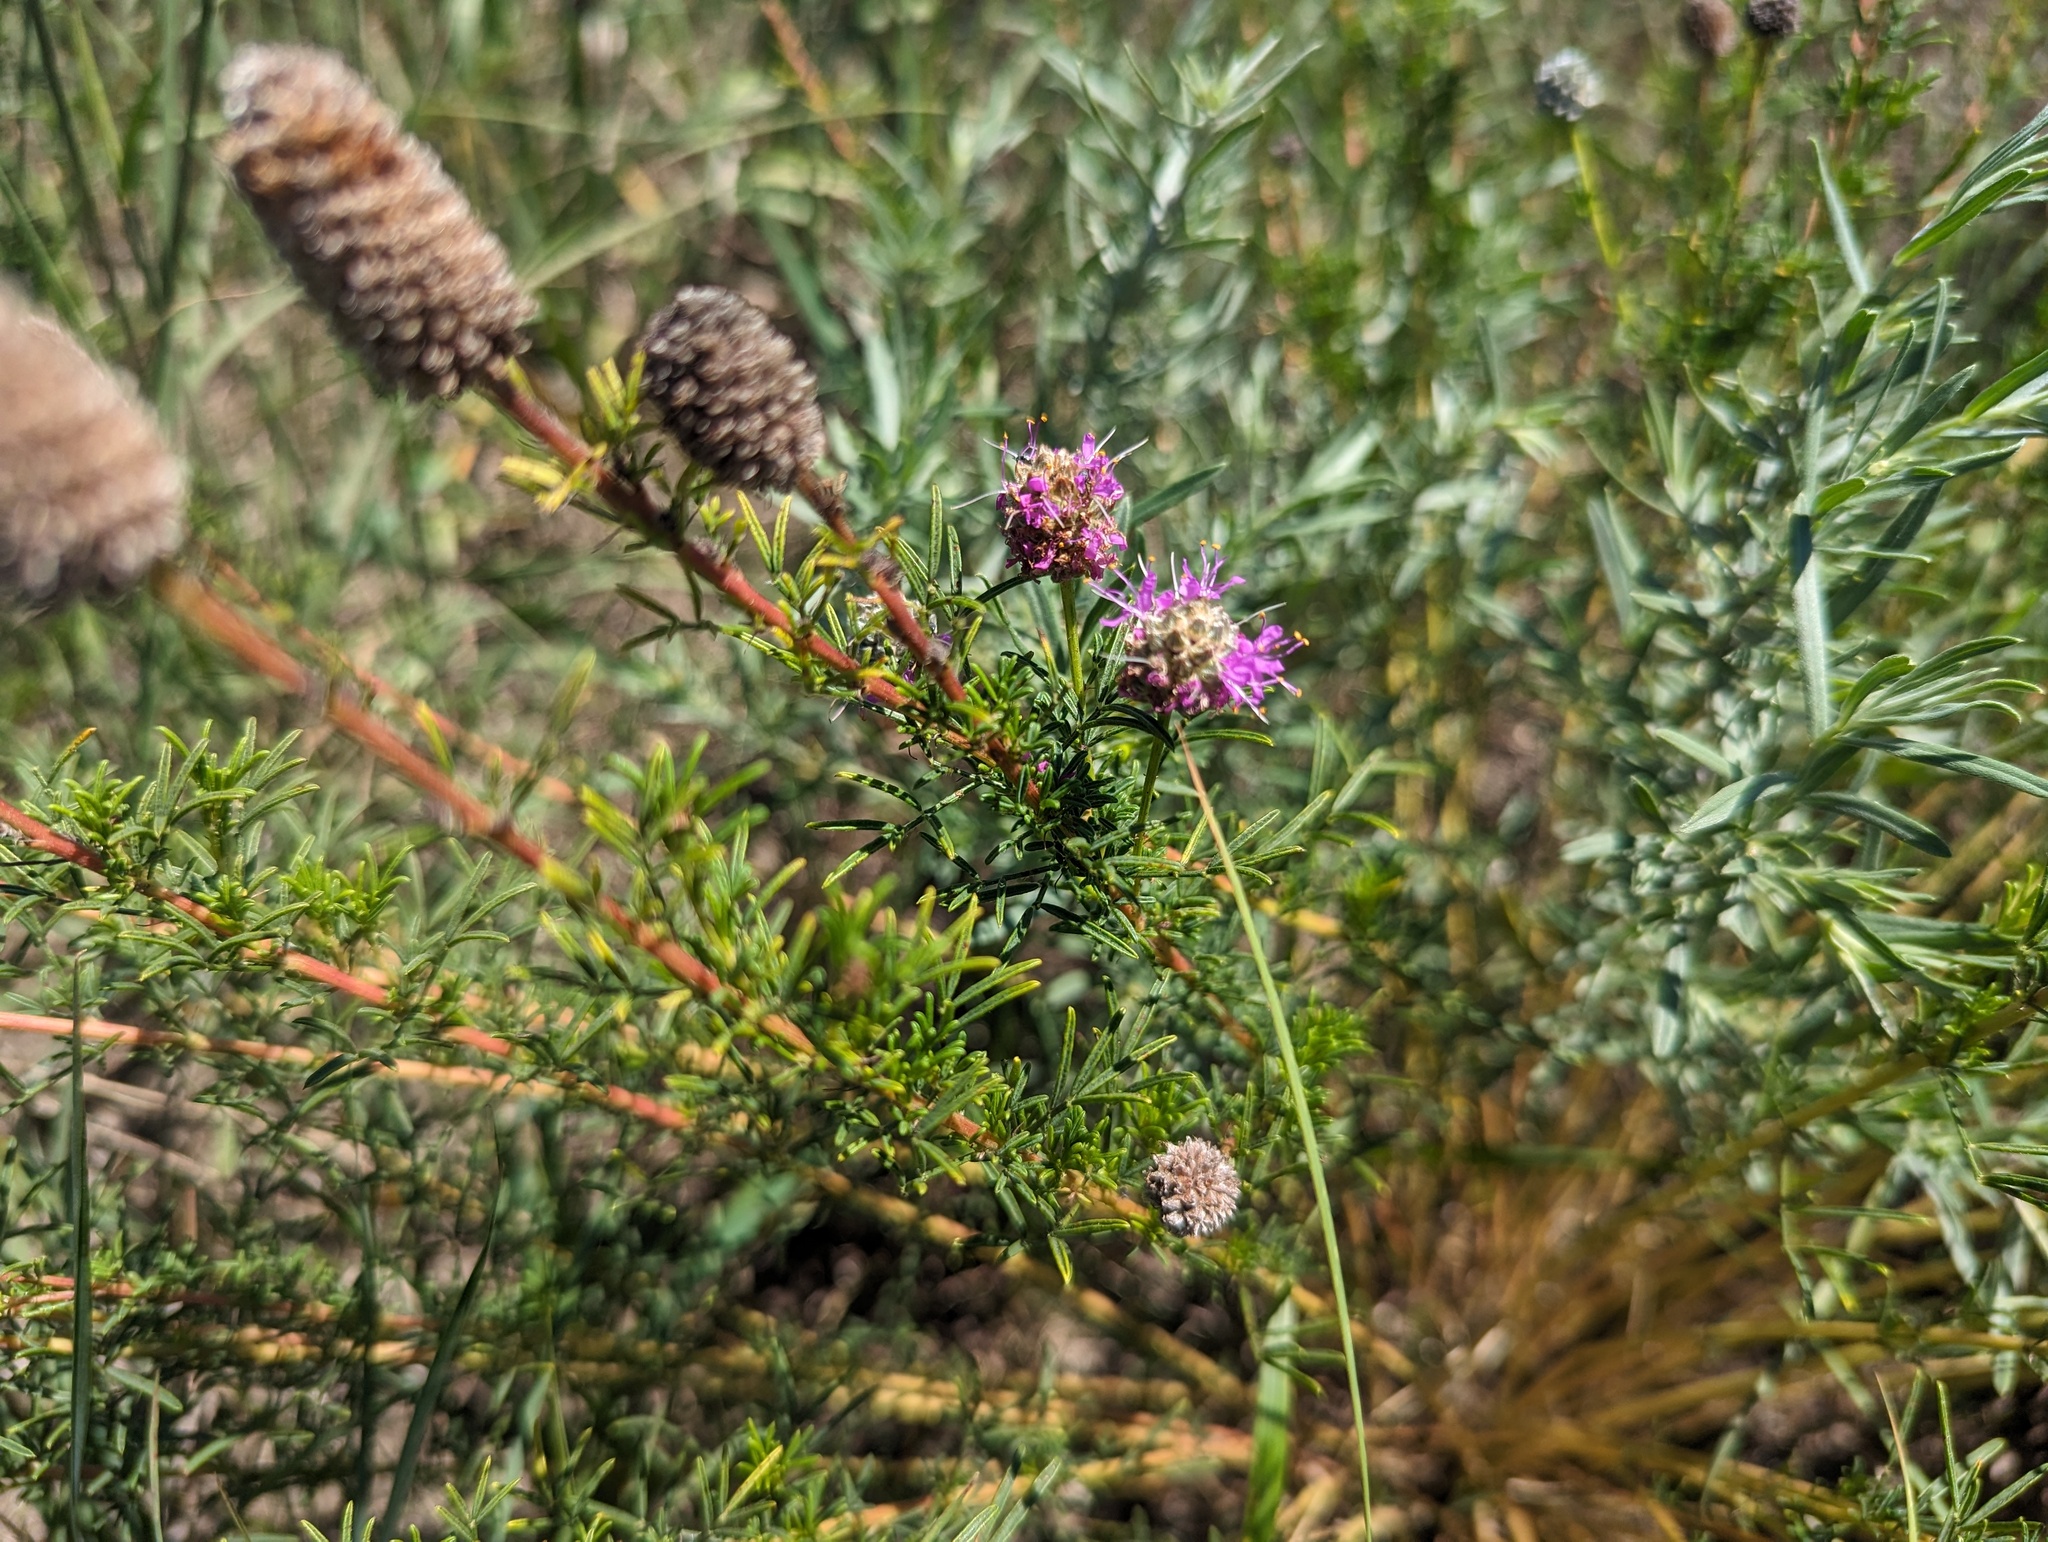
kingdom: Plantae
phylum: Tracheophyta
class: Magnoliopsida
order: Fabales
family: Fabaceae
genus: Dalea
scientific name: Dalea purpurea
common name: Purple prairie-clover
